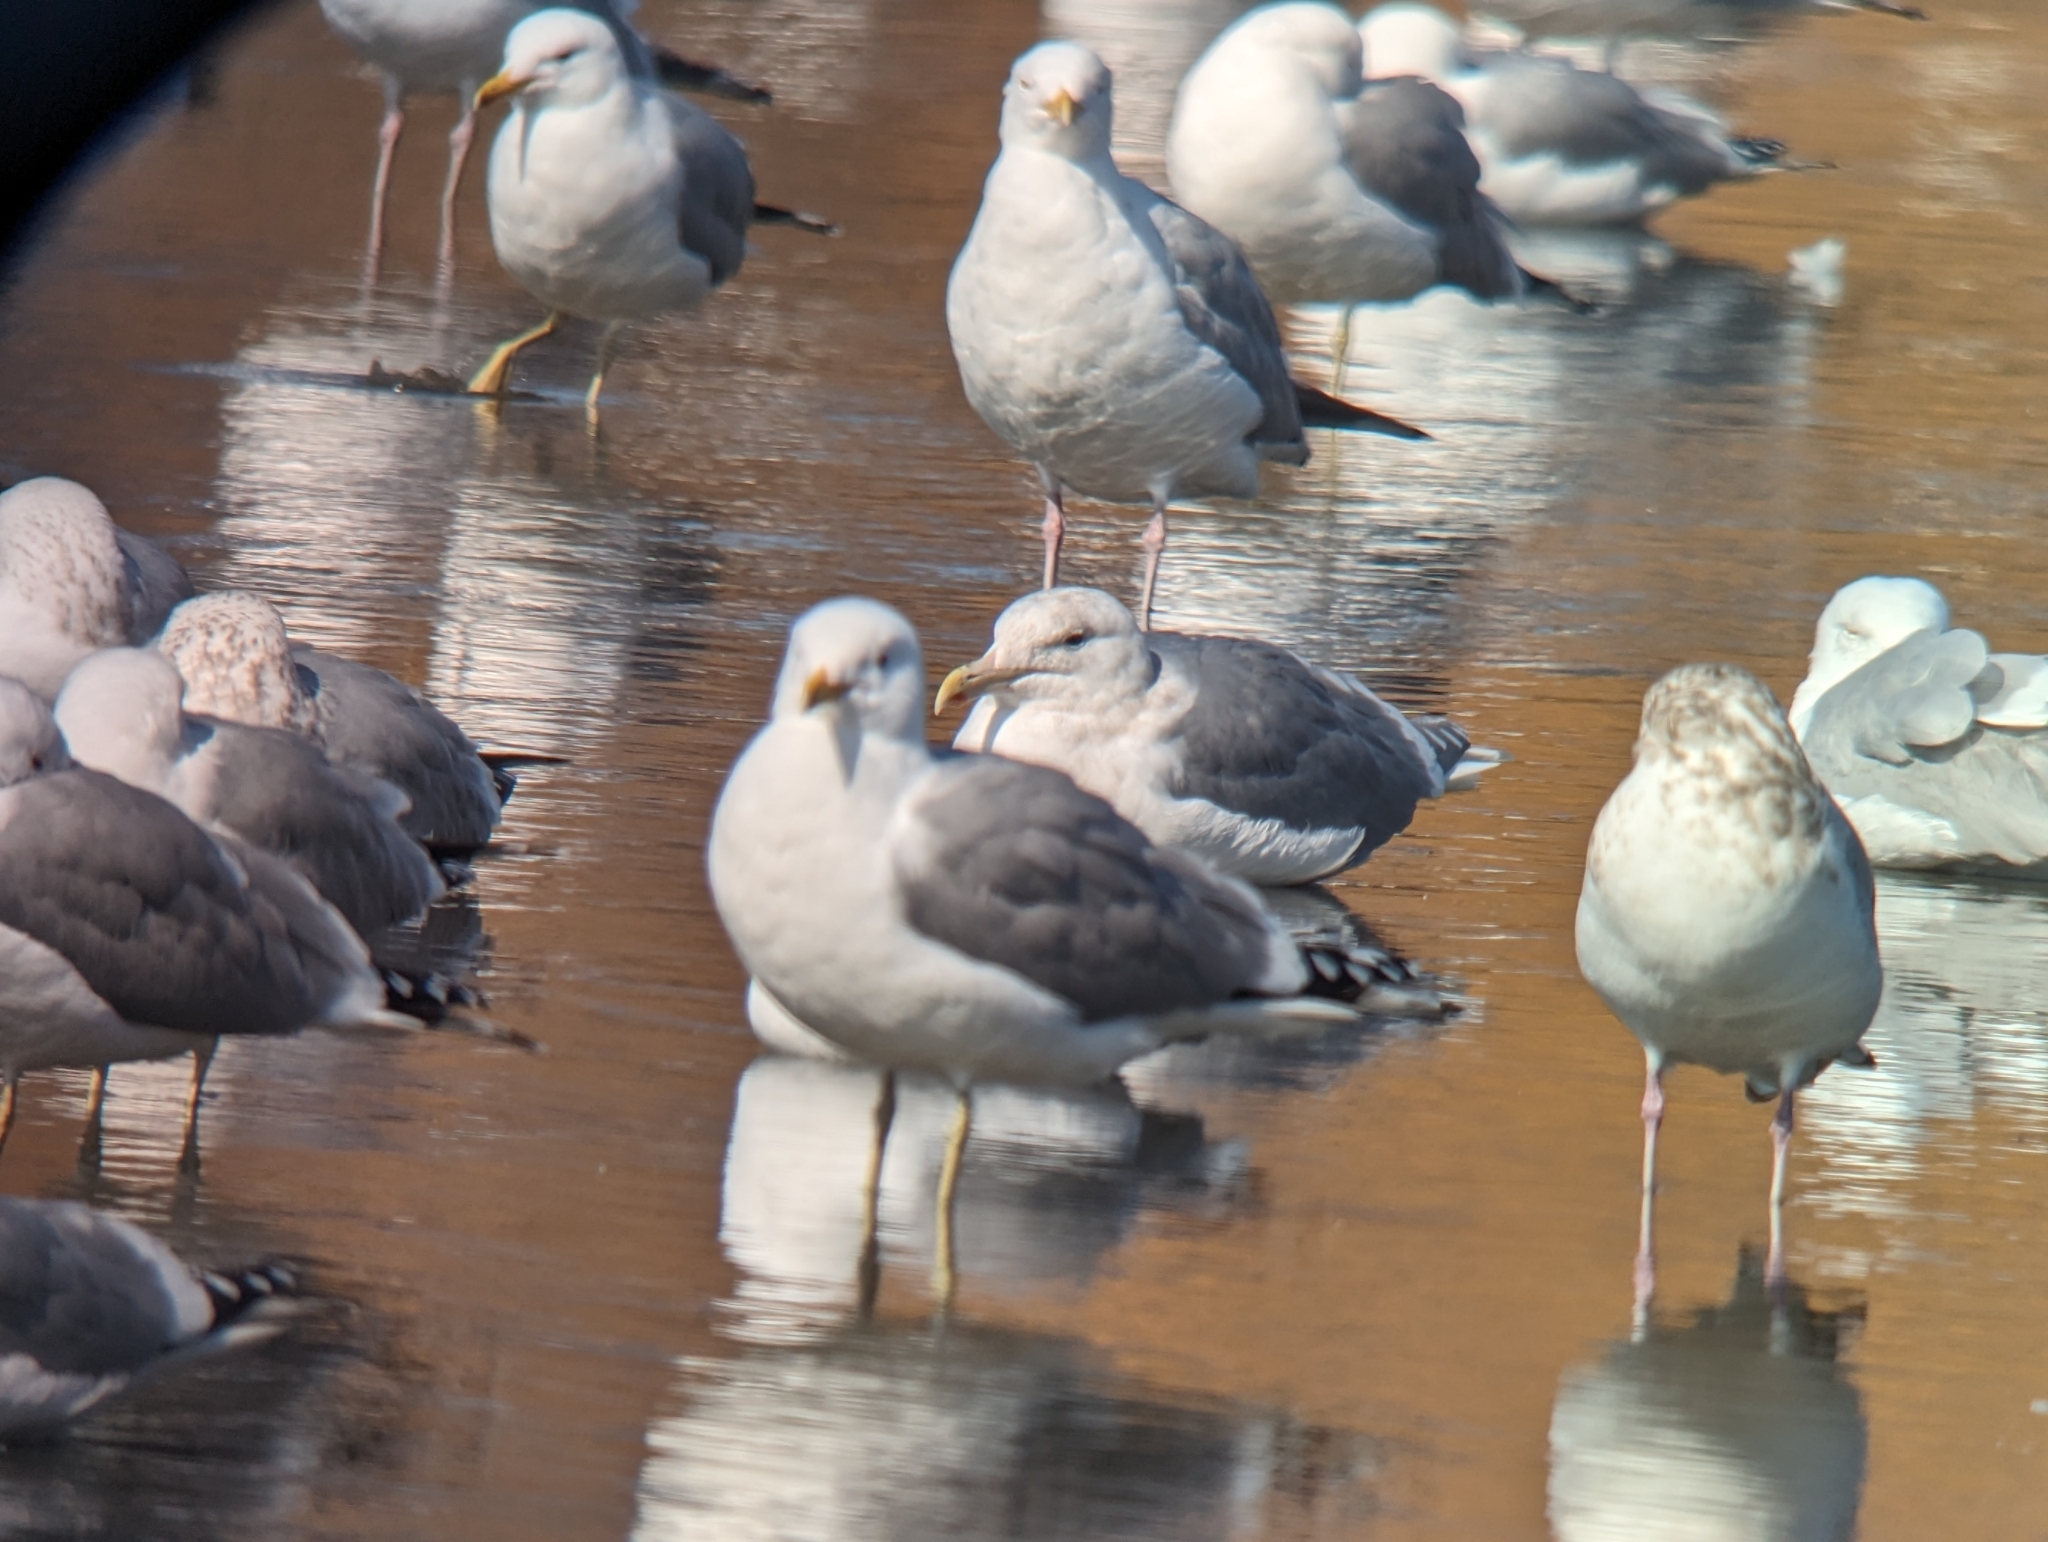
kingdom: Animalia
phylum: Chordata
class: Aves
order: Charadriiformes
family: Laridae
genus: Larus
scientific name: Larus glaucescens
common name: Glaucous-winged gull
